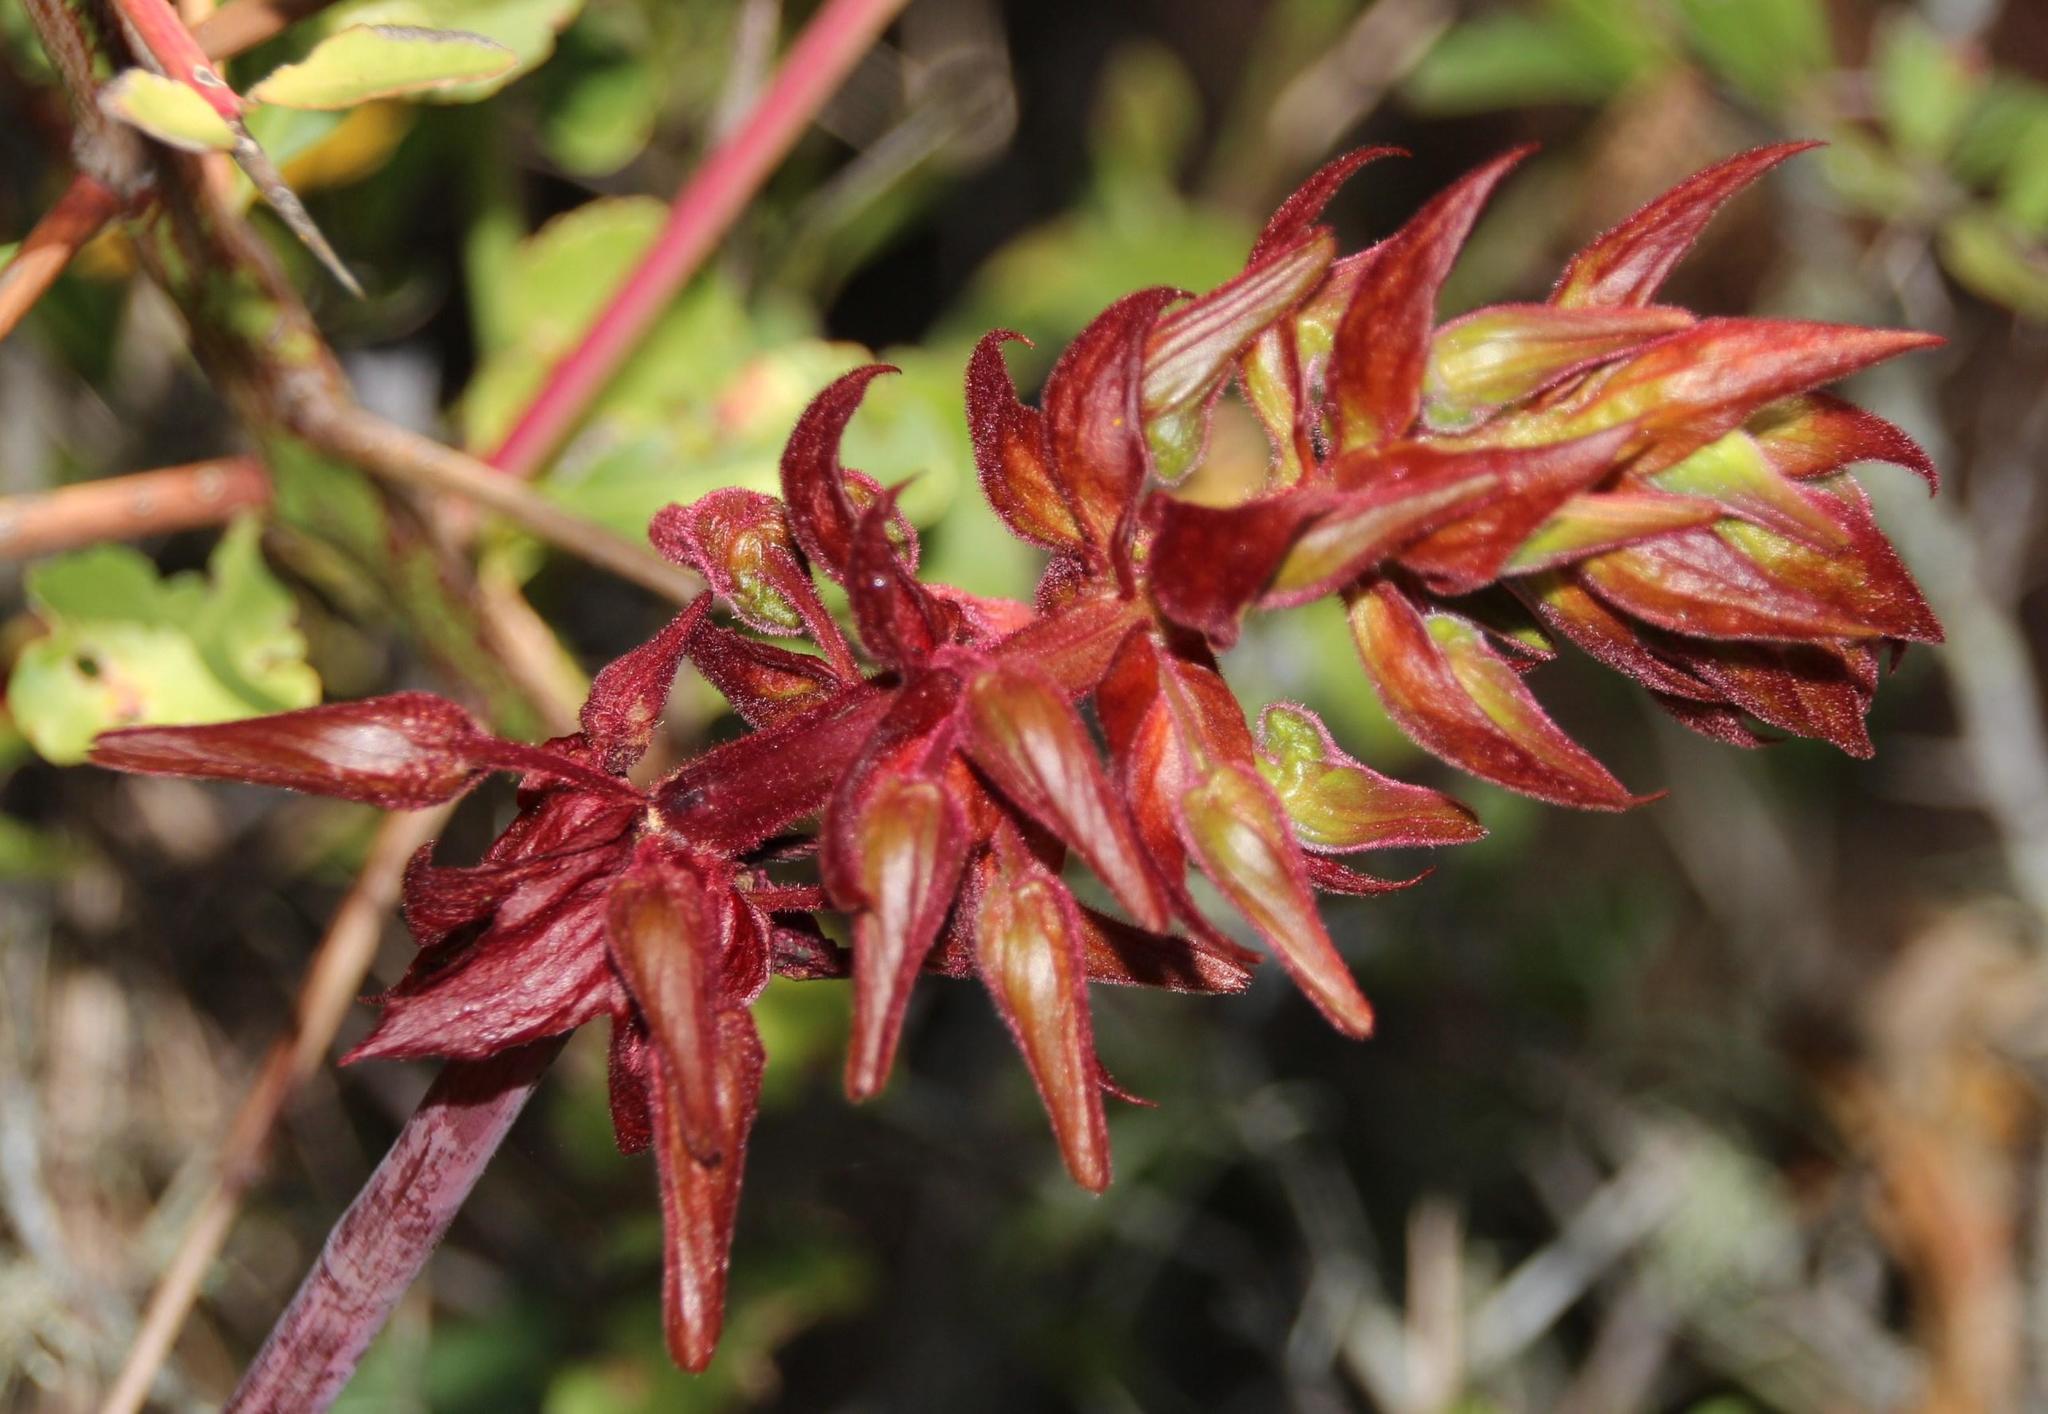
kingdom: Plantae
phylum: Tracheophyta
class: Magnoliopsida
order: Geraniales
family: Melianthaceae
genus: Melianthus
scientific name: Melianthus major
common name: Honey-flower
